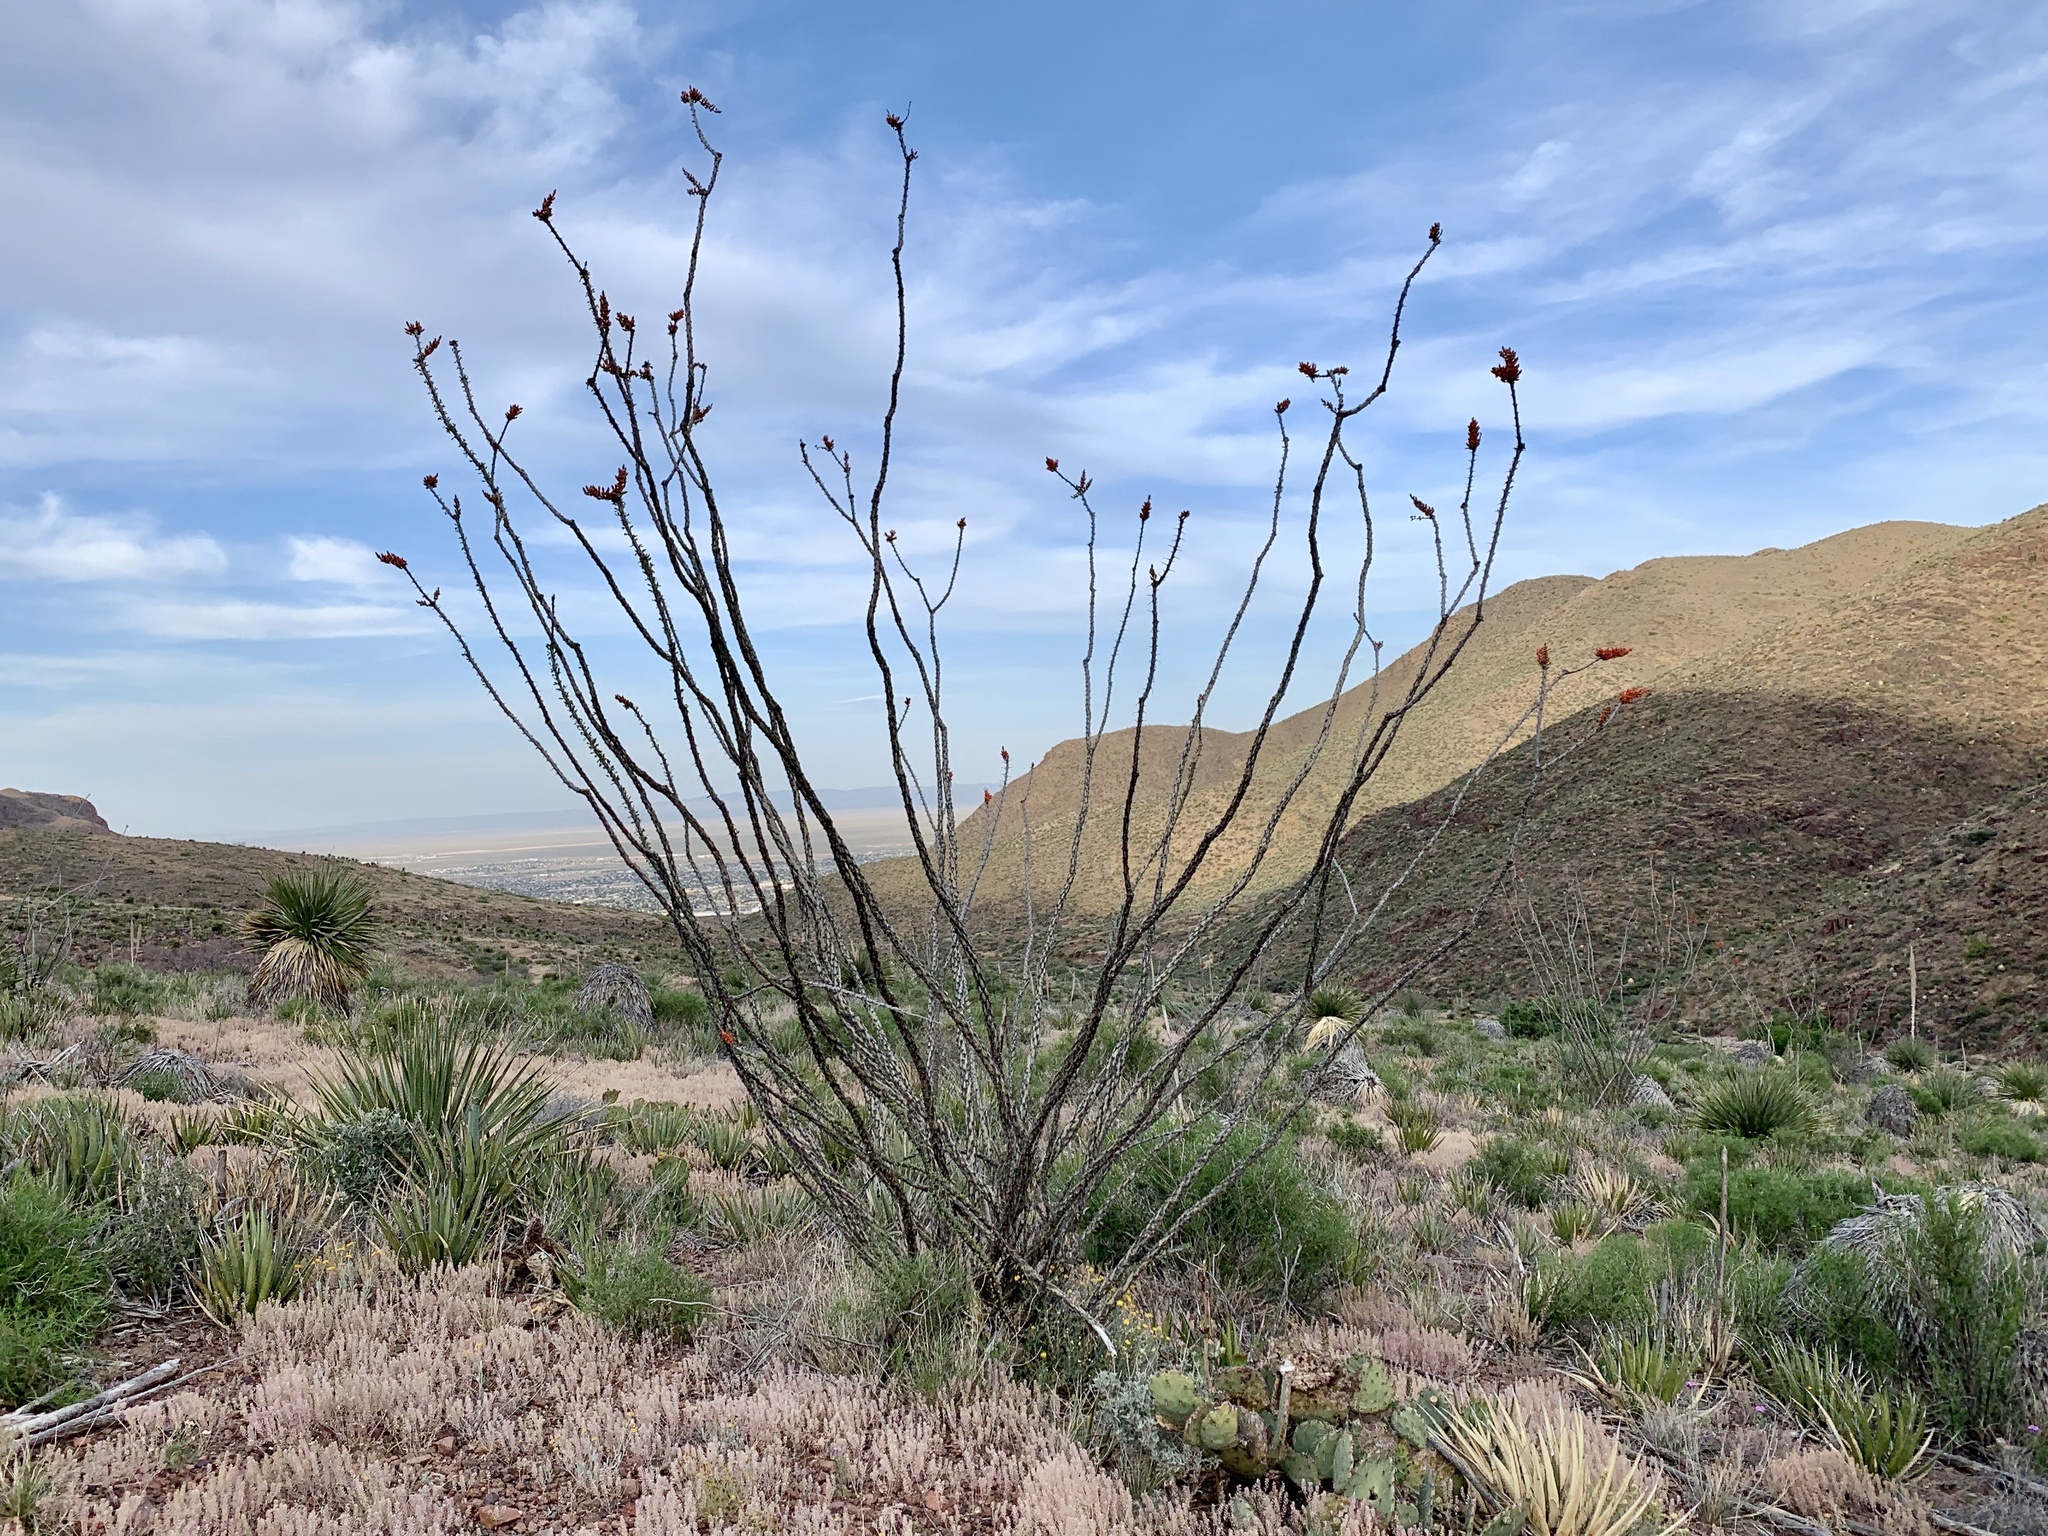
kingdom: Plantae
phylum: Tracheophyta
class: Magnoliopsida
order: Ericales
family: Fouquieriaceae
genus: Fouquieria
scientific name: Fouquieria splendens
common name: Vine-cactus
